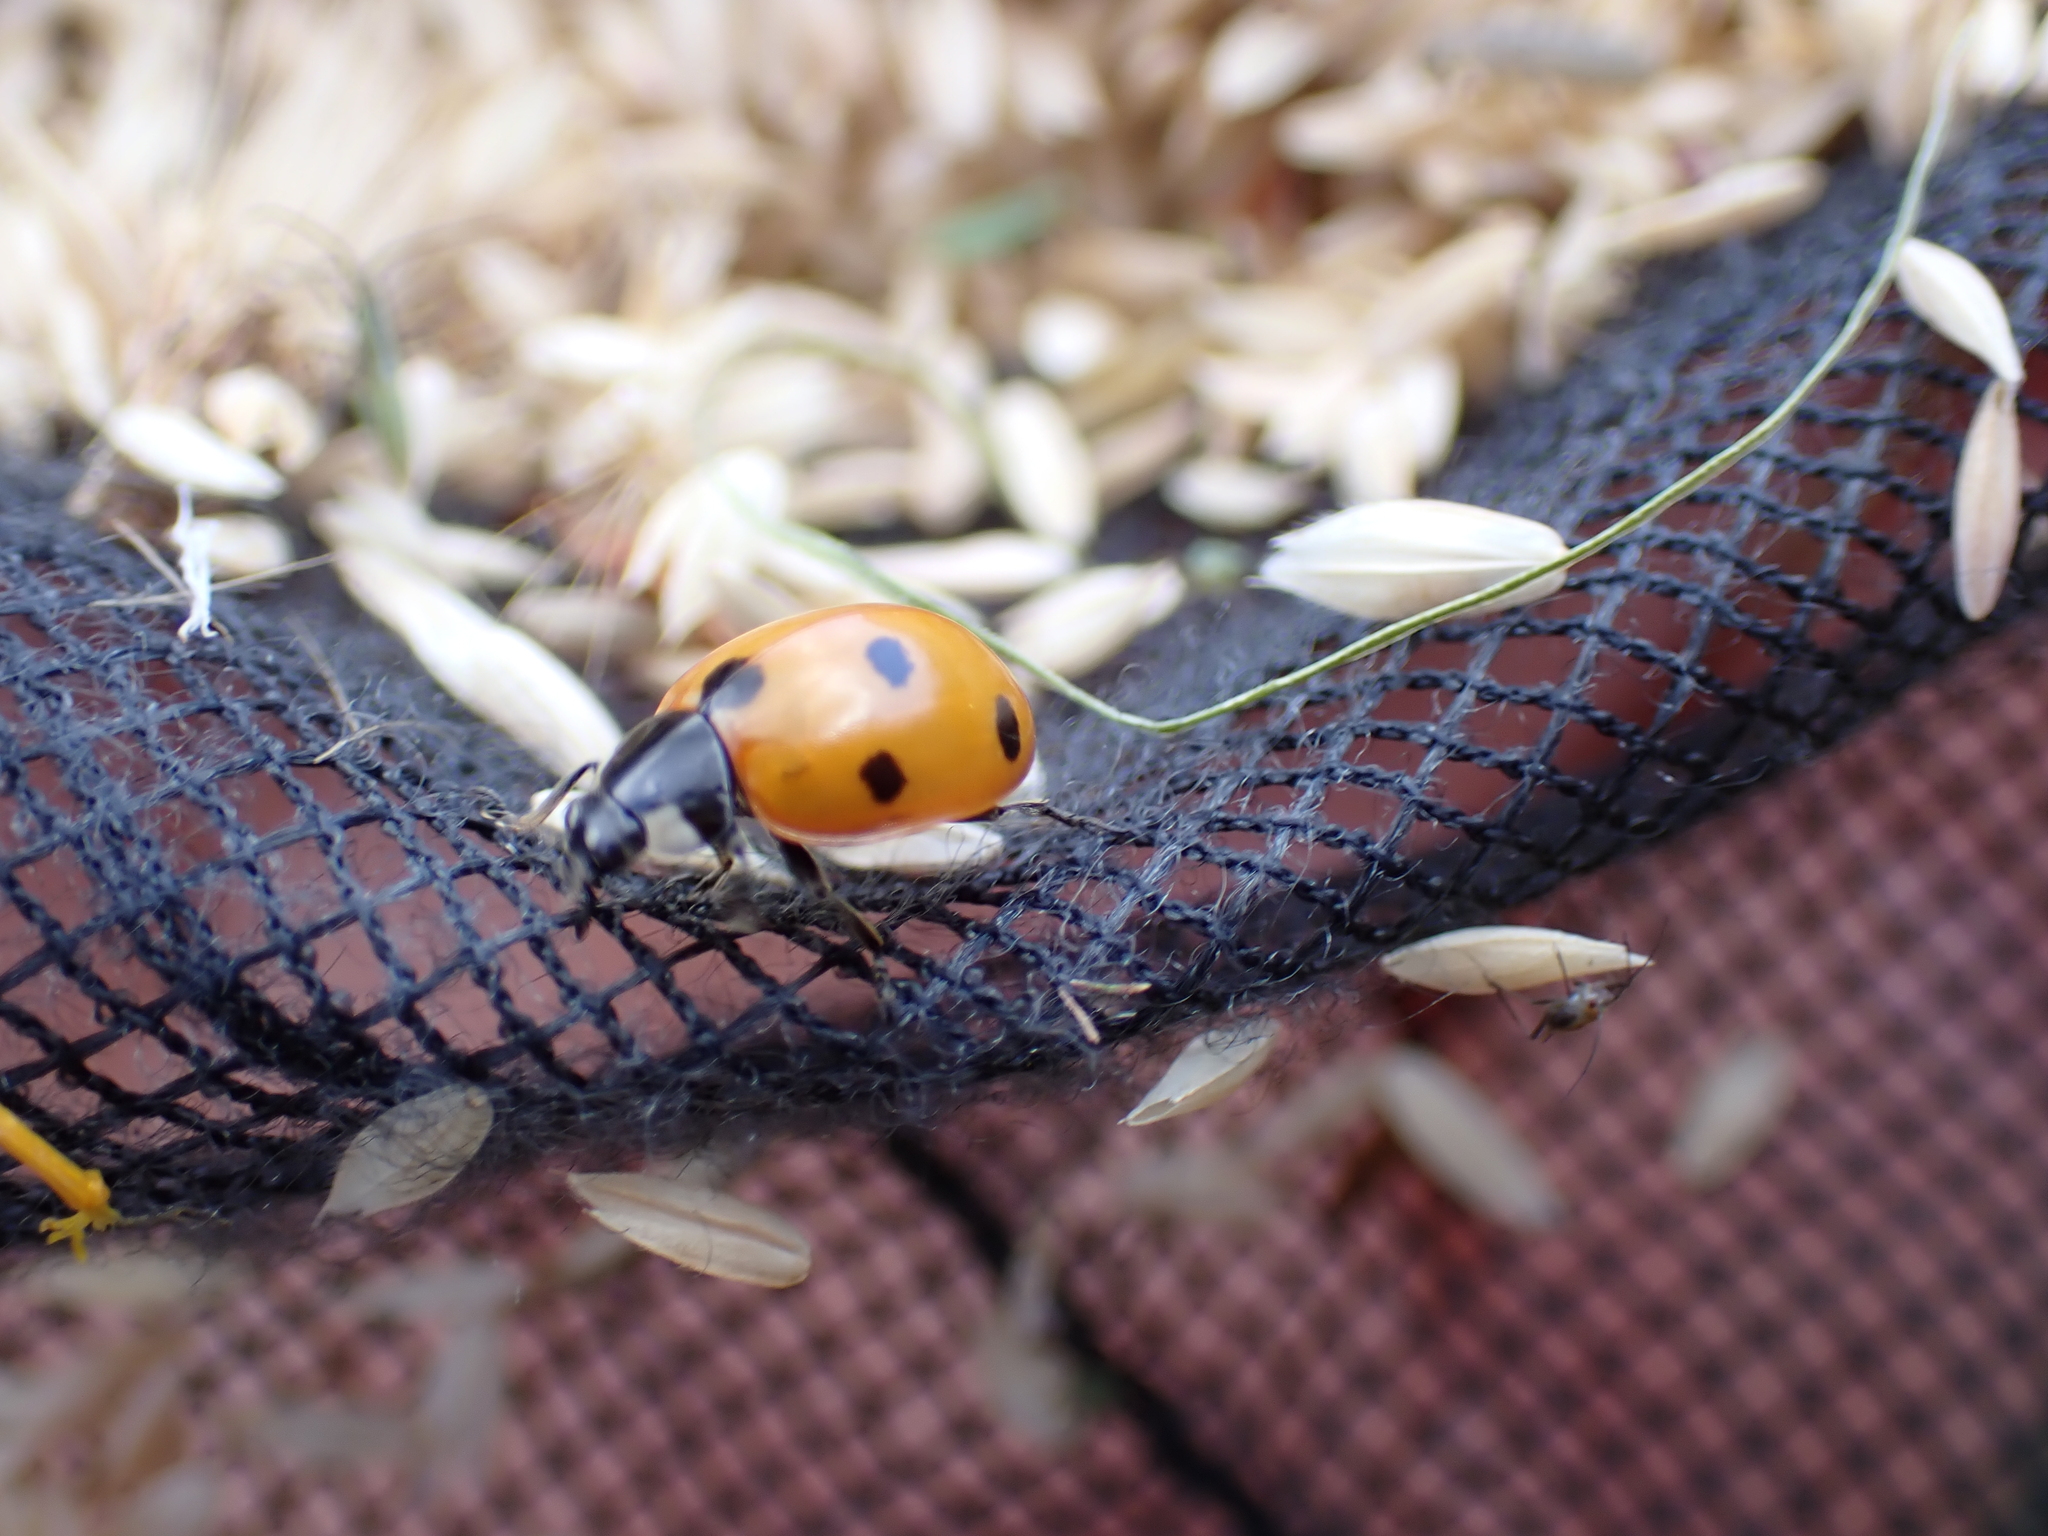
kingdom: Animalia
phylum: Arthropoda
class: Insecta
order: Coleoptera
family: Coccinellidae
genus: Coccinella
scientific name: Coccinella septempunctata
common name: Sevenspotted lady beetle
